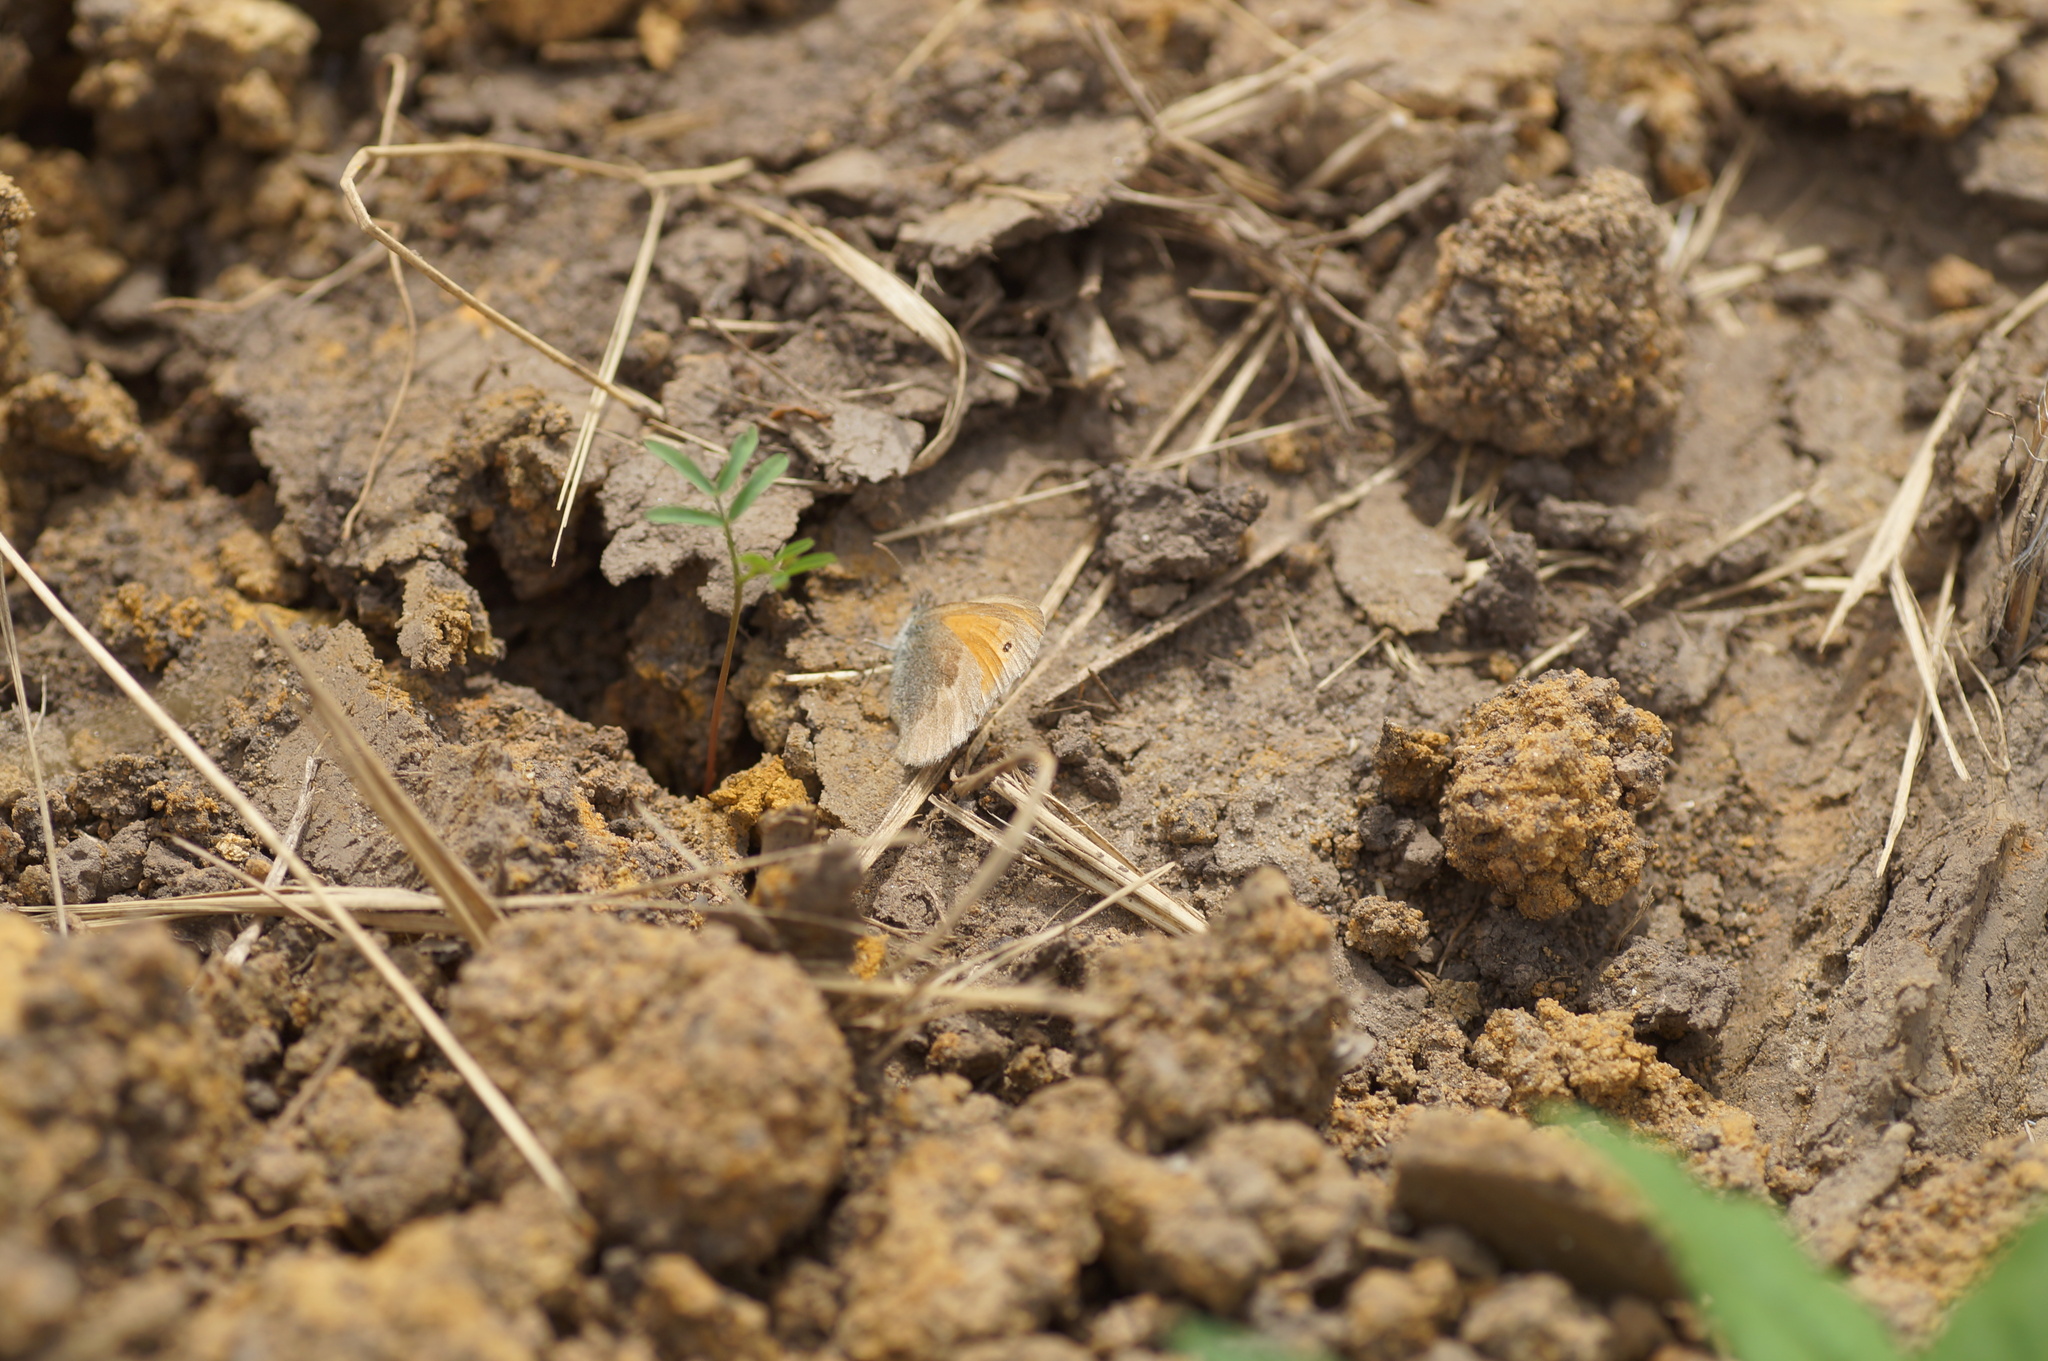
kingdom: Animalia
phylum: Arthropoda
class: Insecta
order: Lepidoptera
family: Nymphalidae
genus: Coenonympha
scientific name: Coenonympha pamphilus
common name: Small heath
